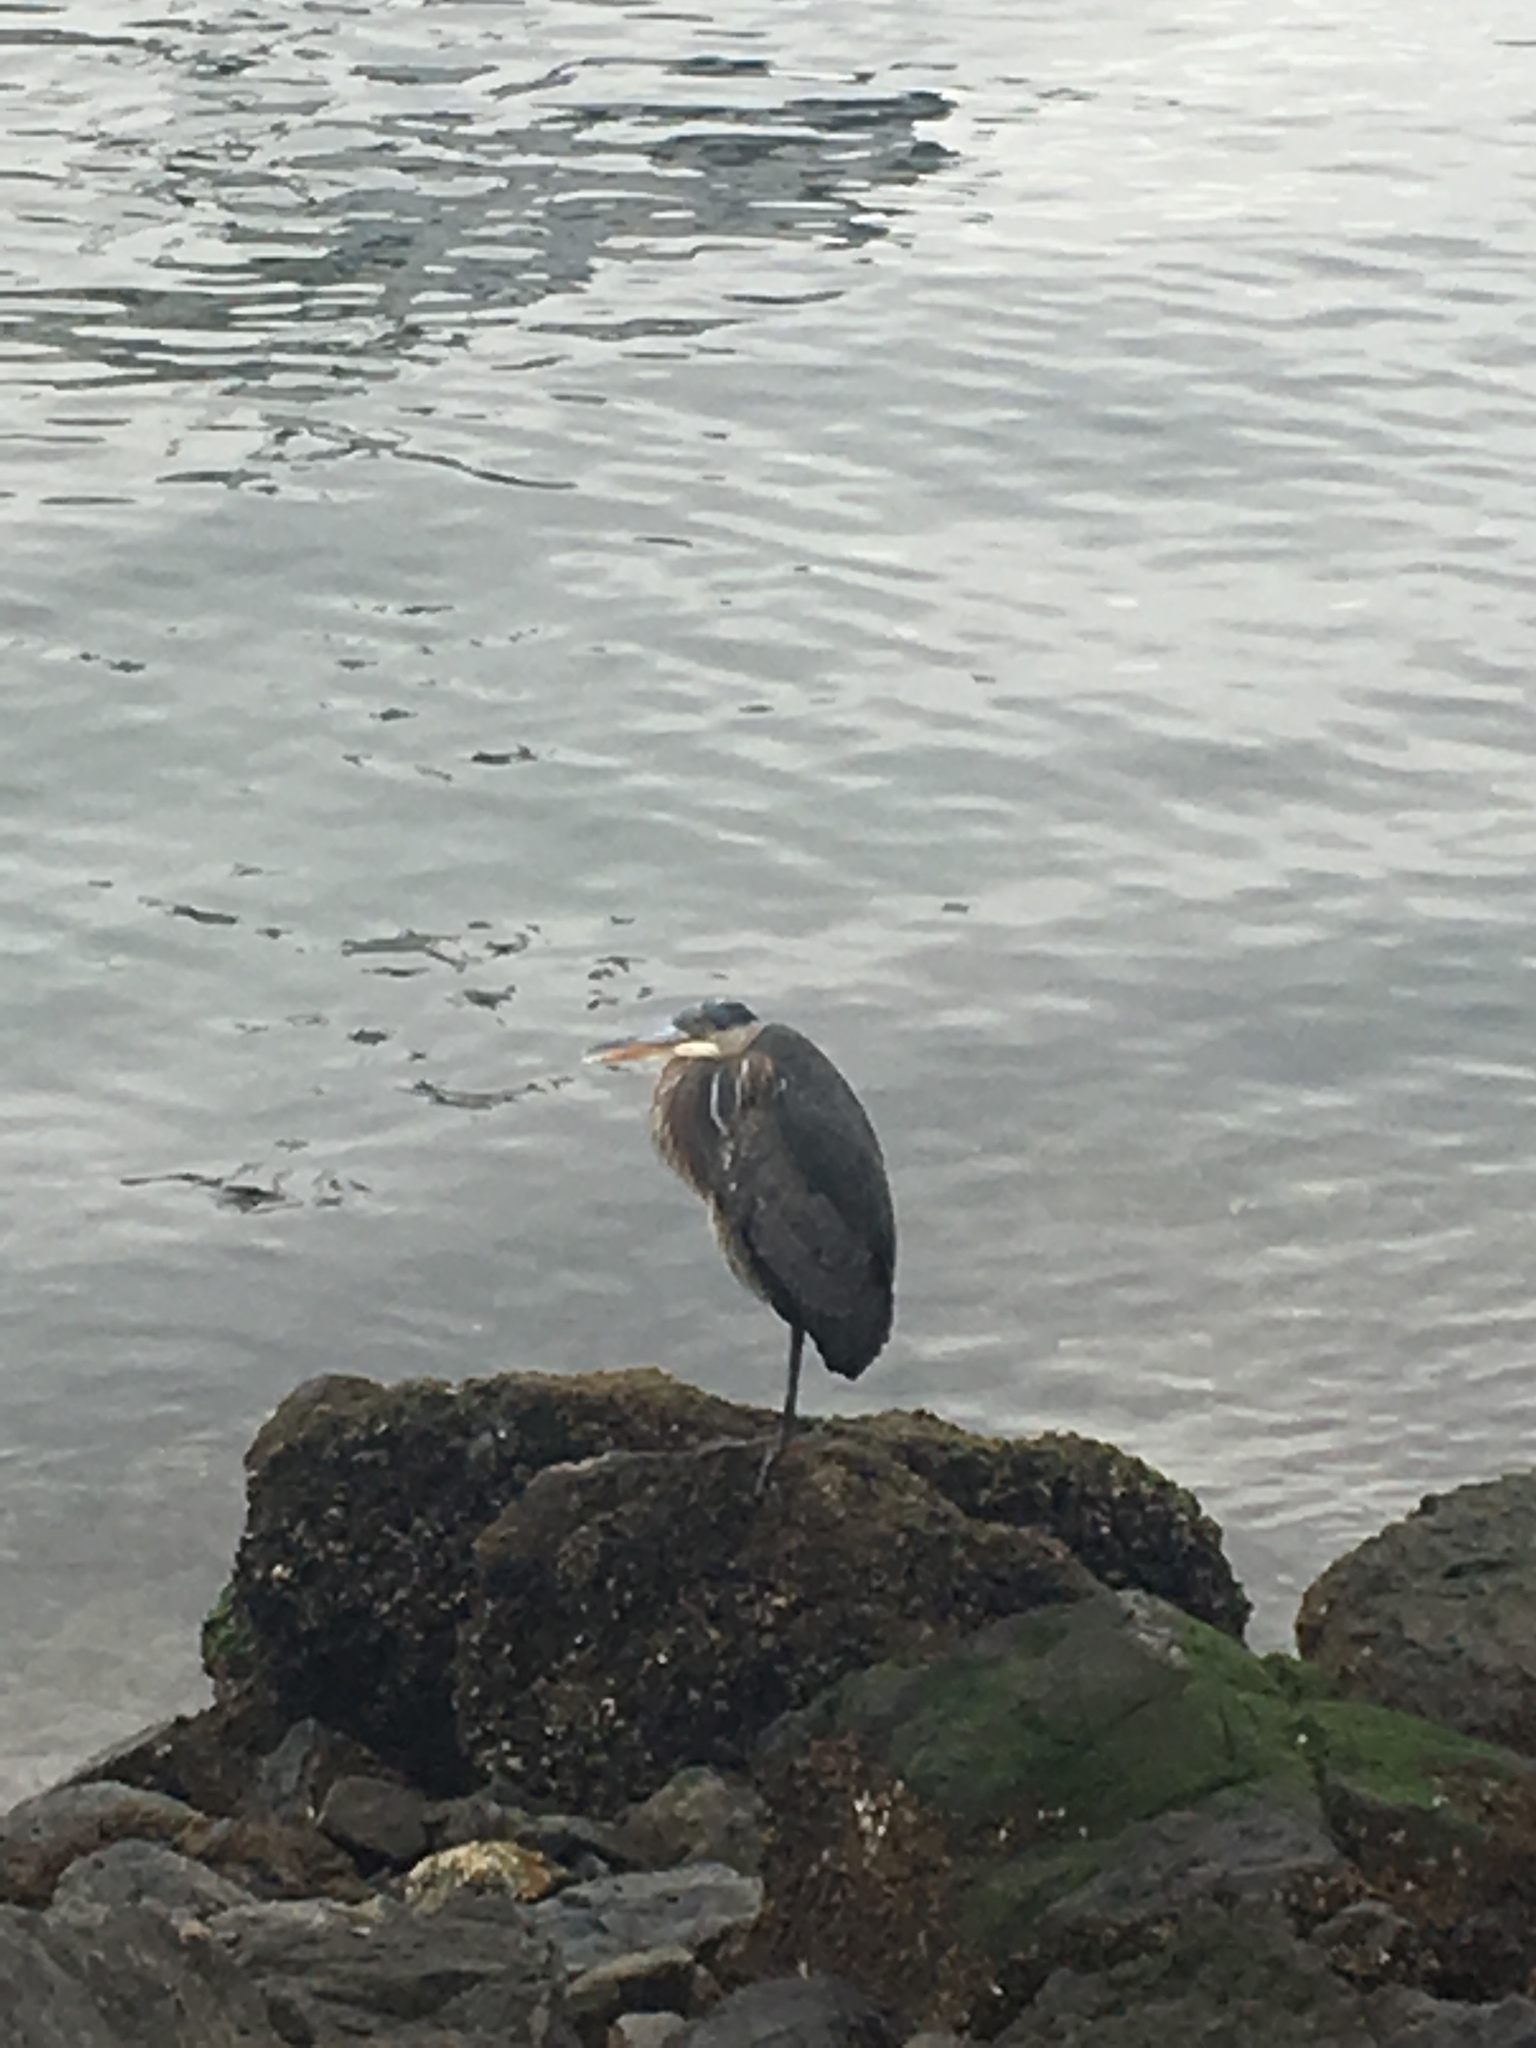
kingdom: Animalia
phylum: Chordata
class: Aves
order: Pelecaniformes
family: Ardeidae
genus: Ardea
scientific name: Ardea herodias
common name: Great blue heron
